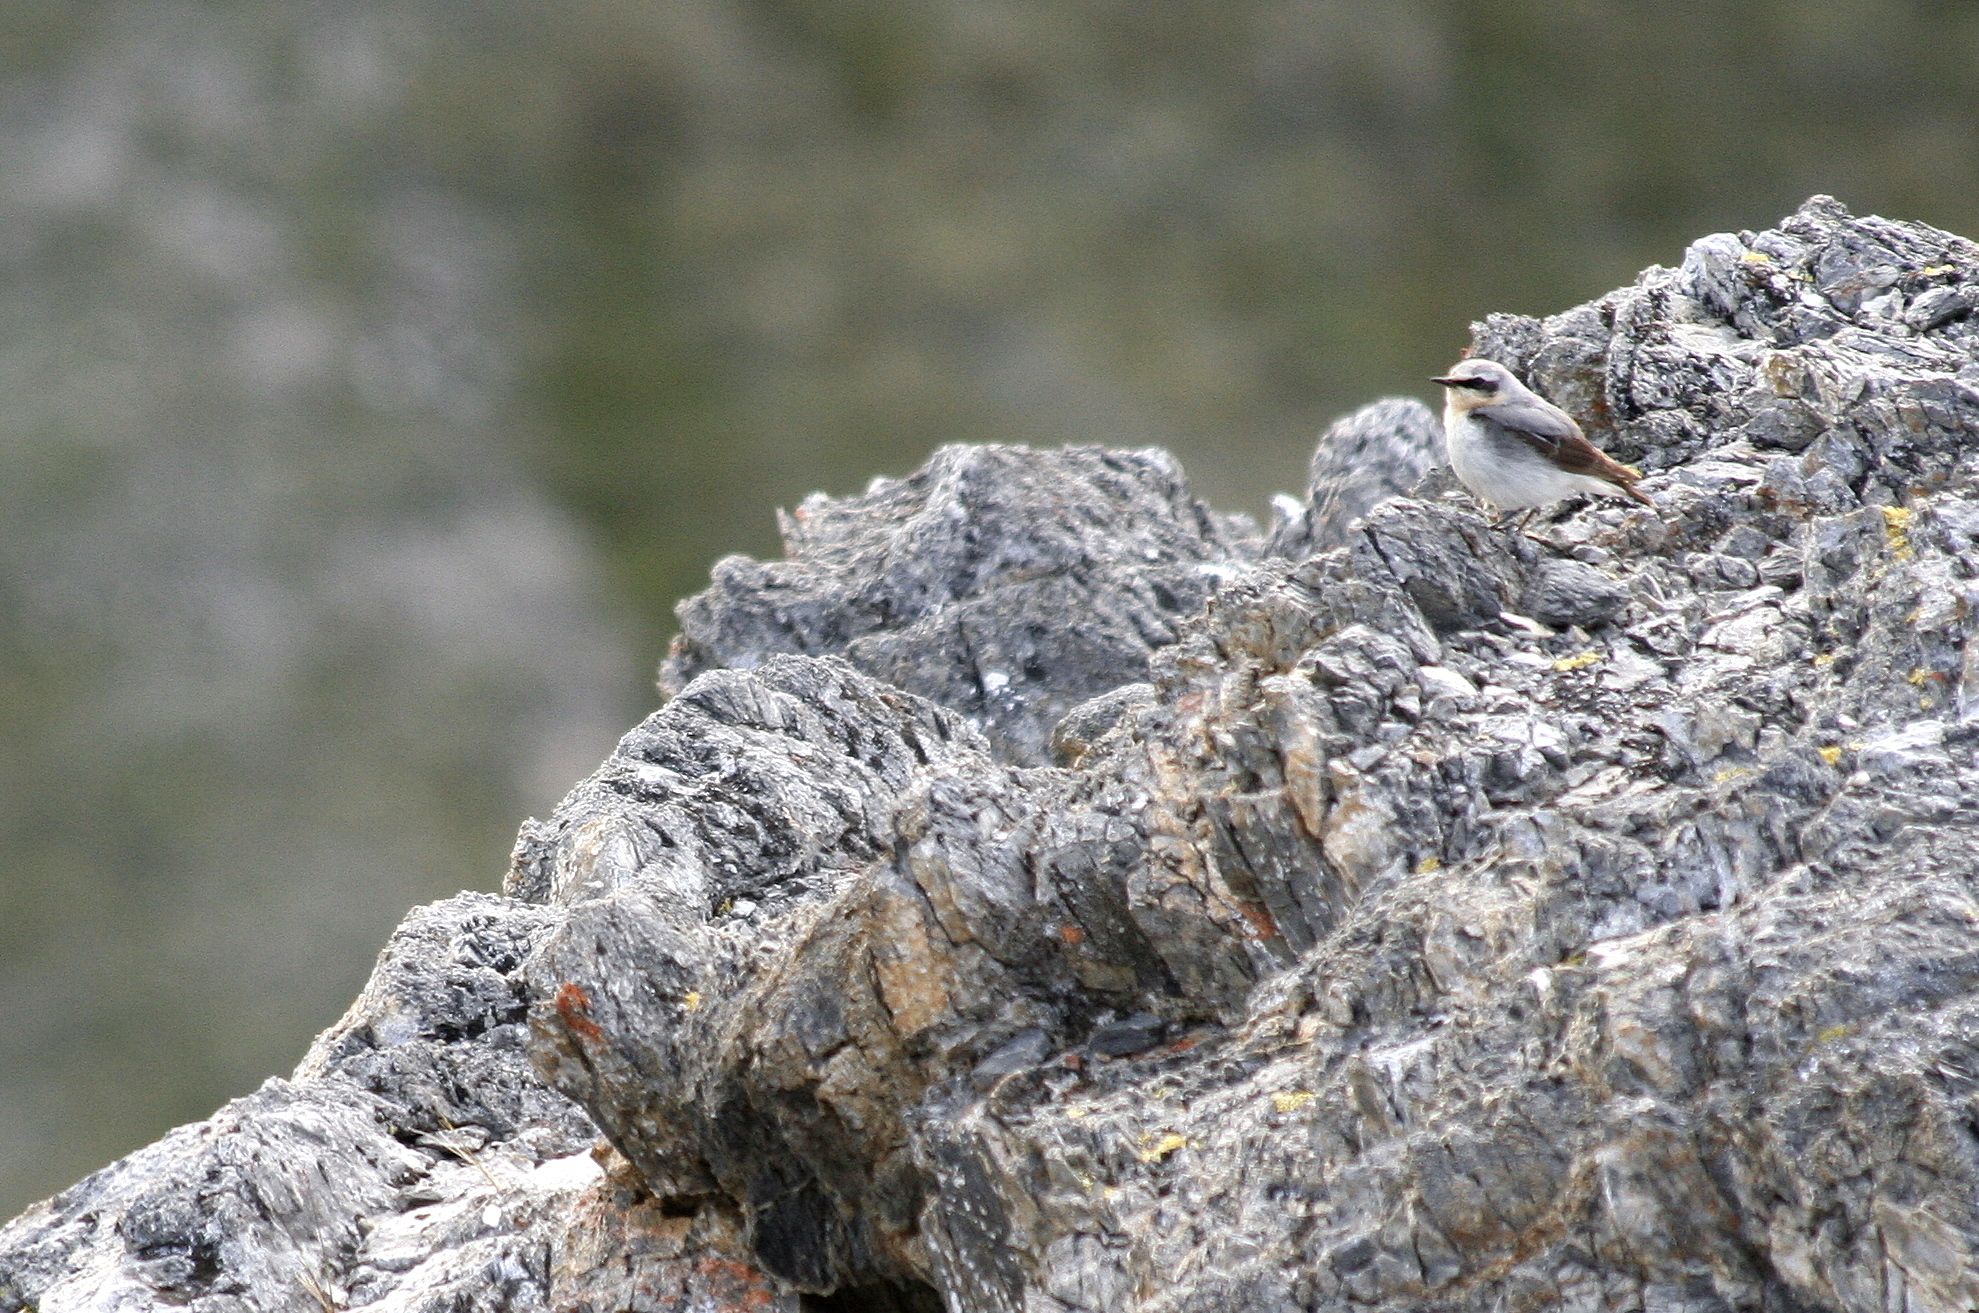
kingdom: Animalia
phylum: Chordata
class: Aves
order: Passeriformes
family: Muscicapidae
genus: Oenanthe
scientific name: Oenanthe oenanthe
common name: Northern wheatear
